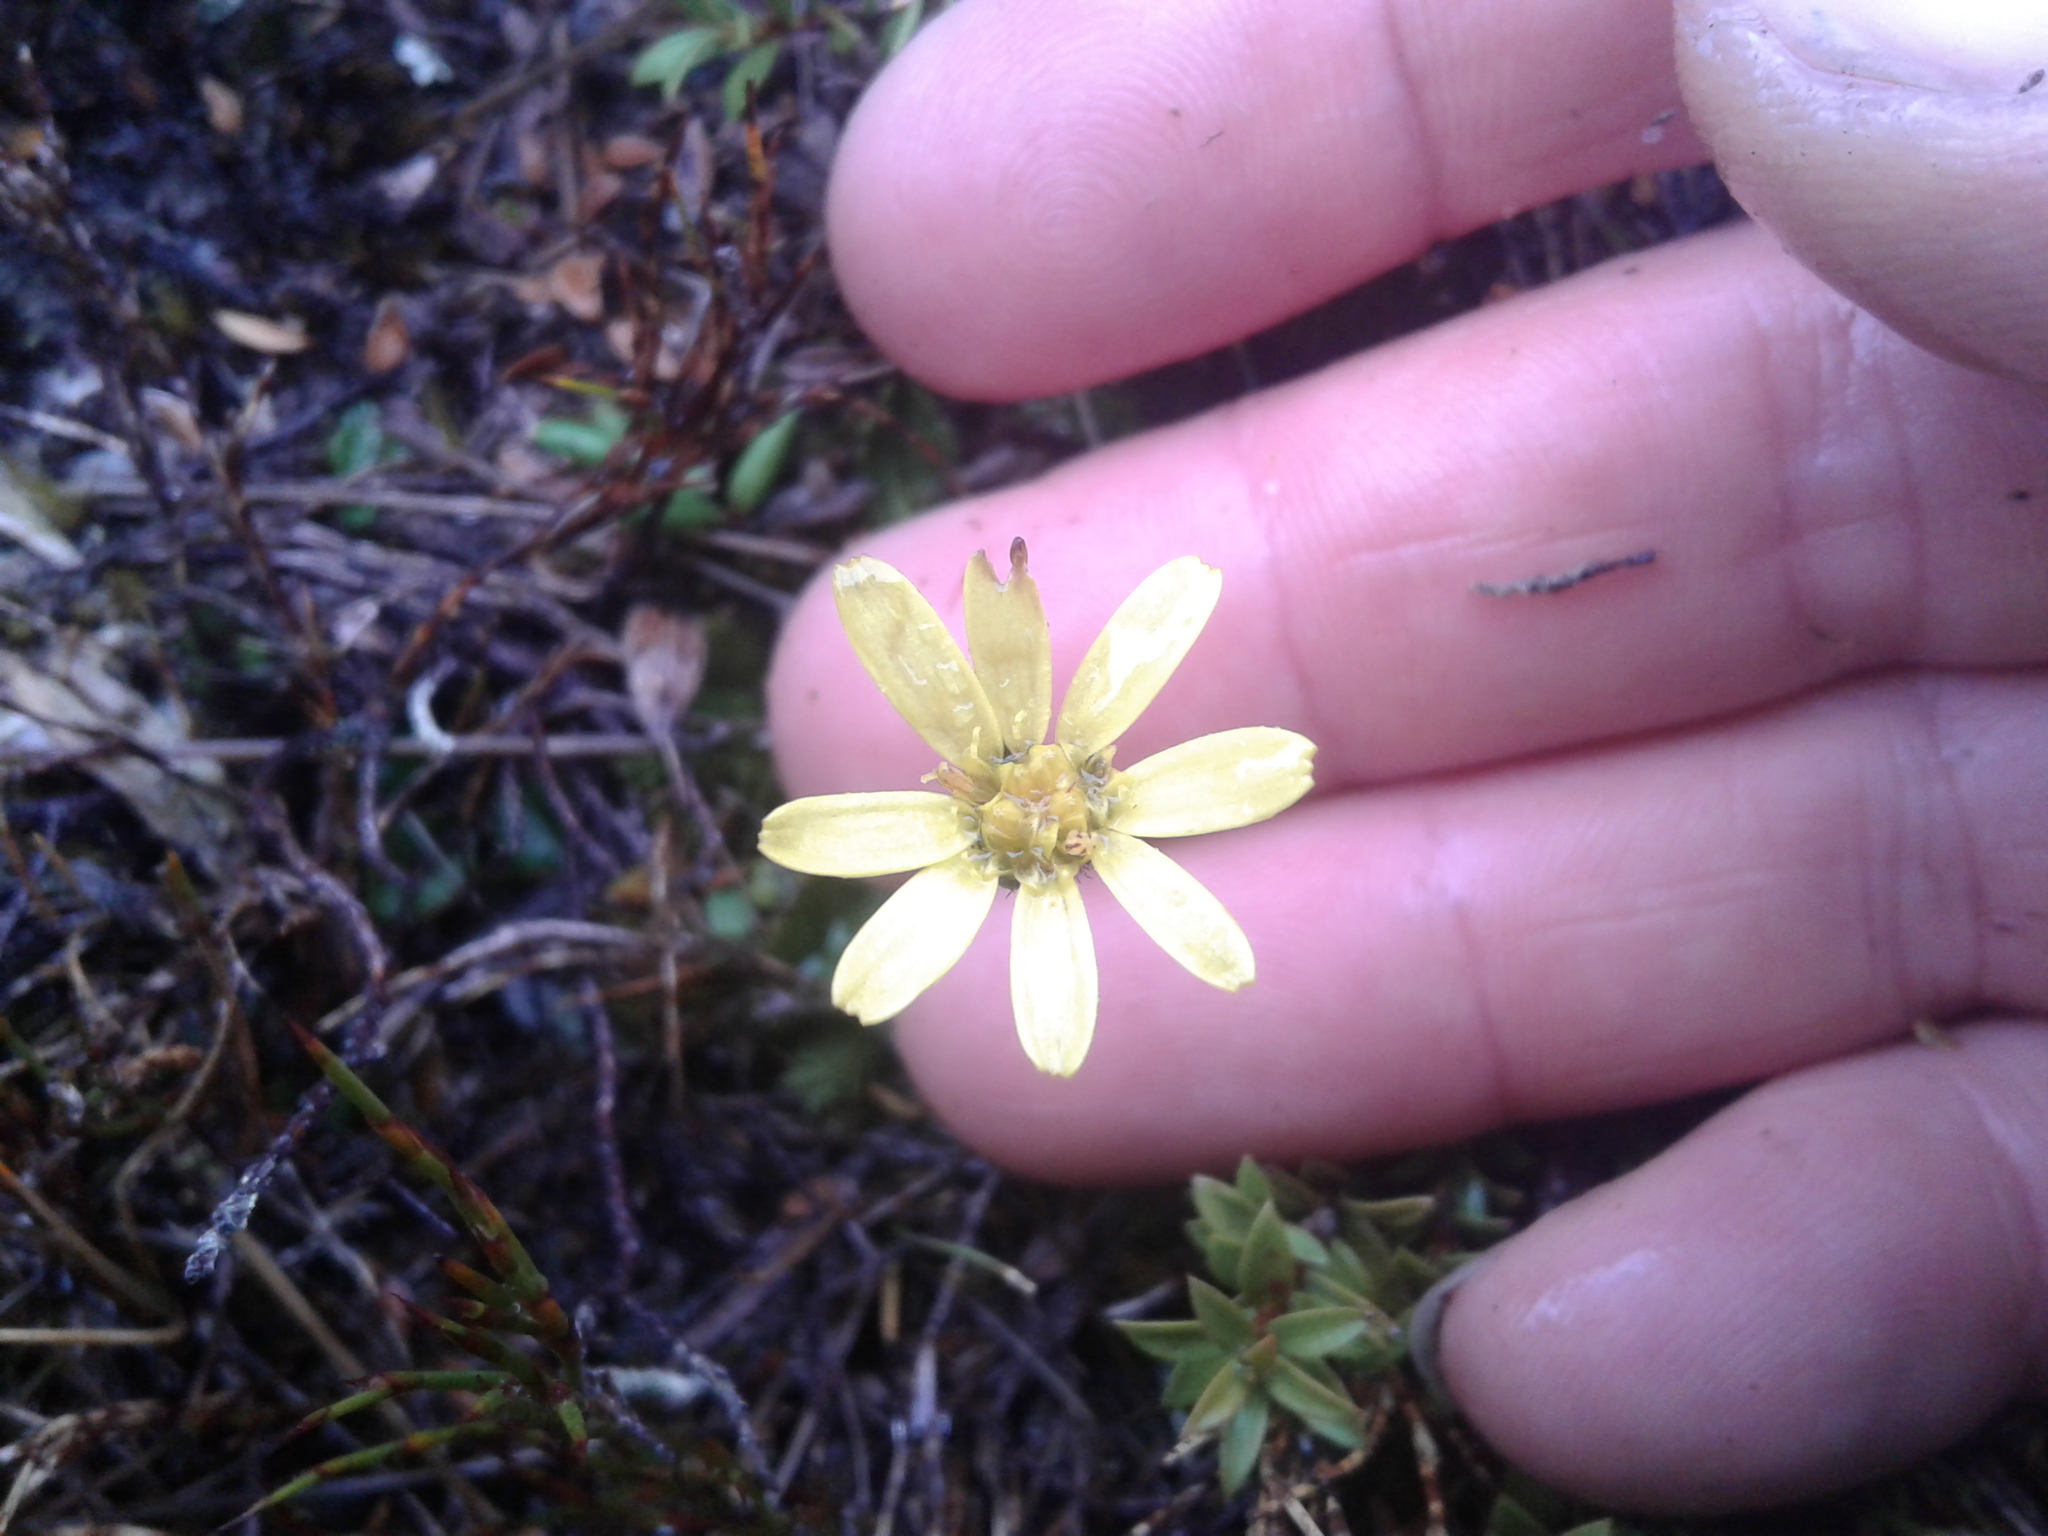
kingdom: Plantae
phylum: Tracheophyta
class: Magnoliopsida
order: Asterales
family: Asteraceae
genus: Brachyglottis
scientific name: Brachyglottis lagopus
